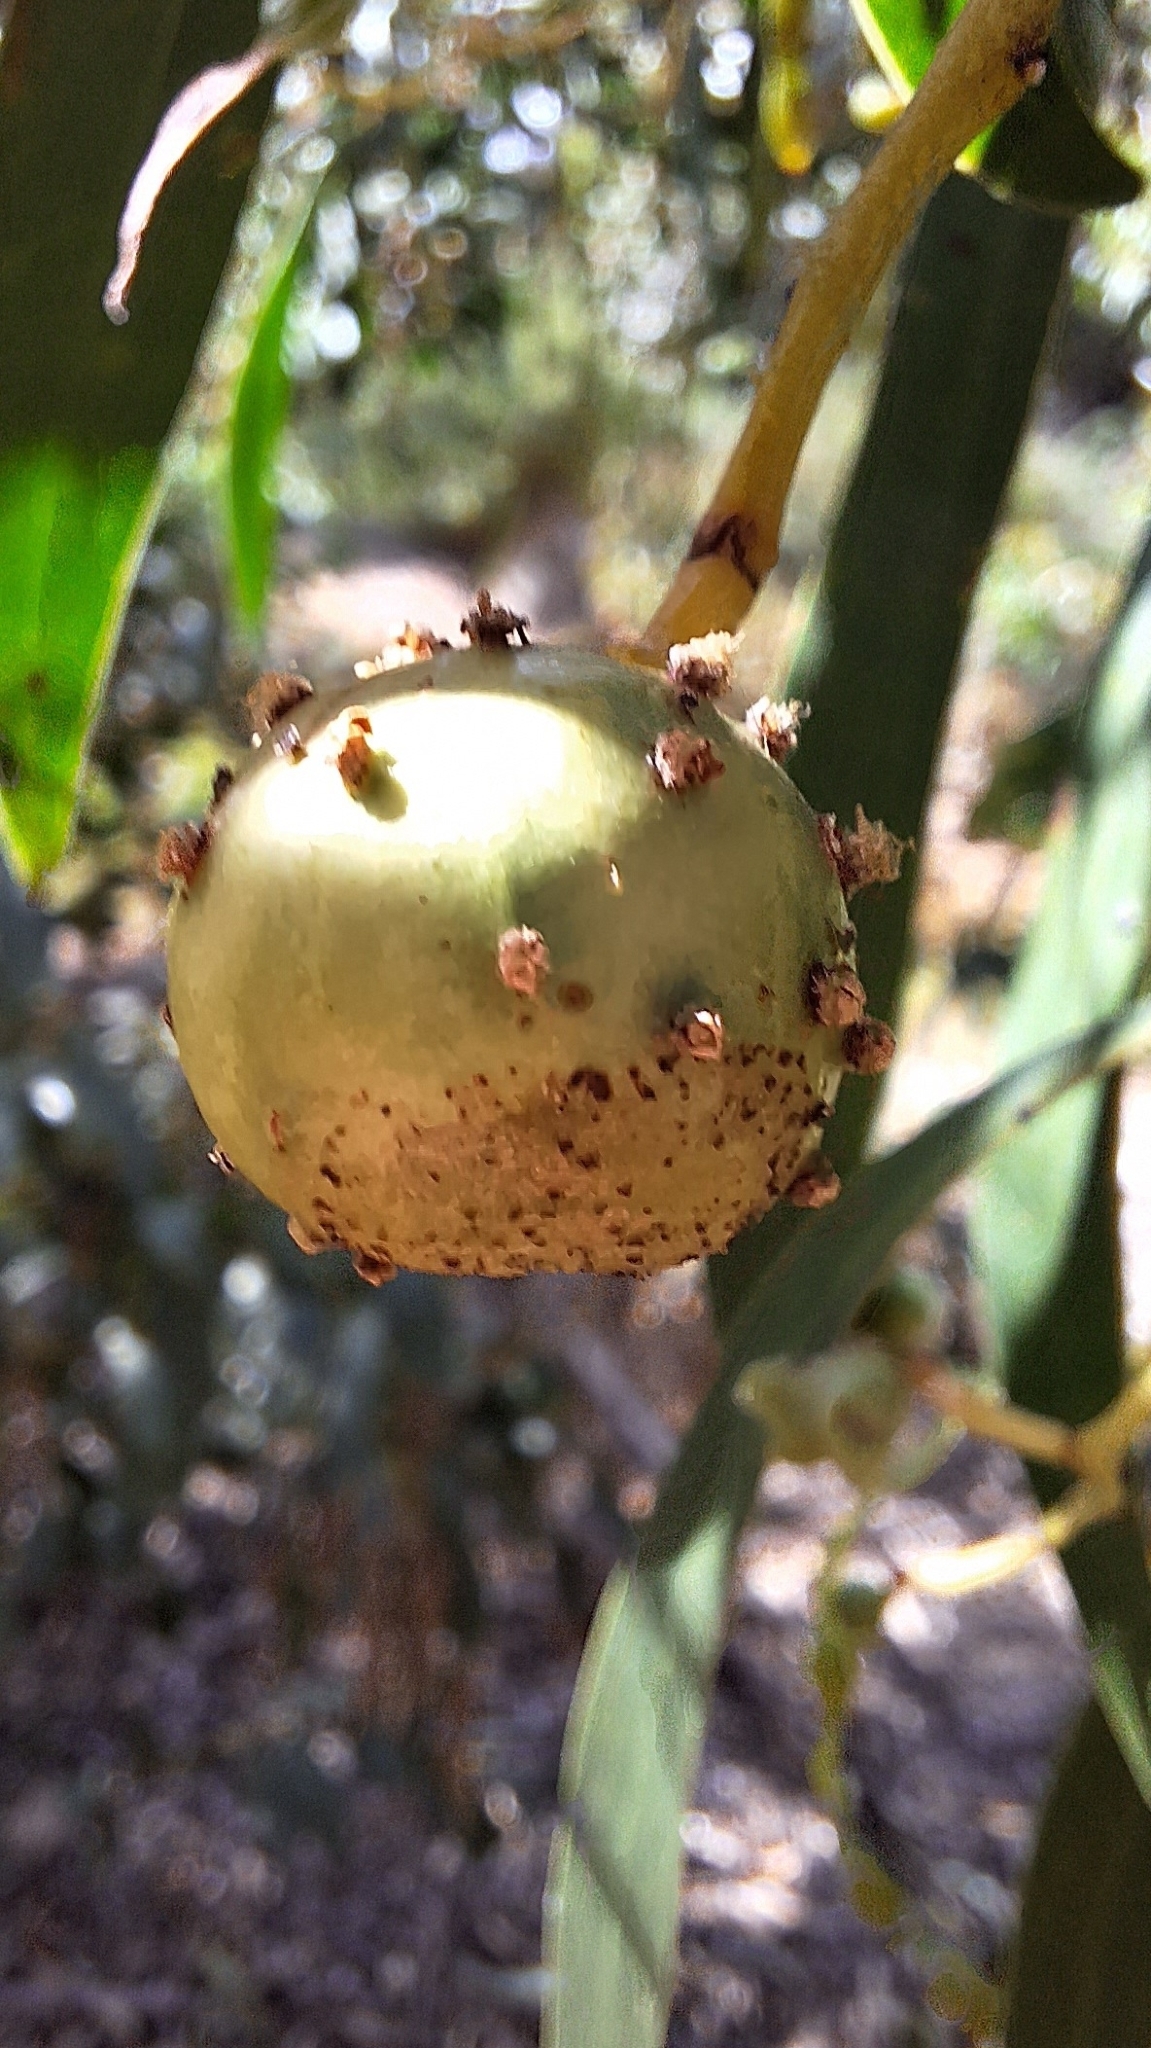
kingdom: Animalia
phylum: Arthropoda
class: Insecta
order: Hymenoptera
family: Pteromalidae
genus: Trichilogaster
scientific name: Trichilogaster signiventris
